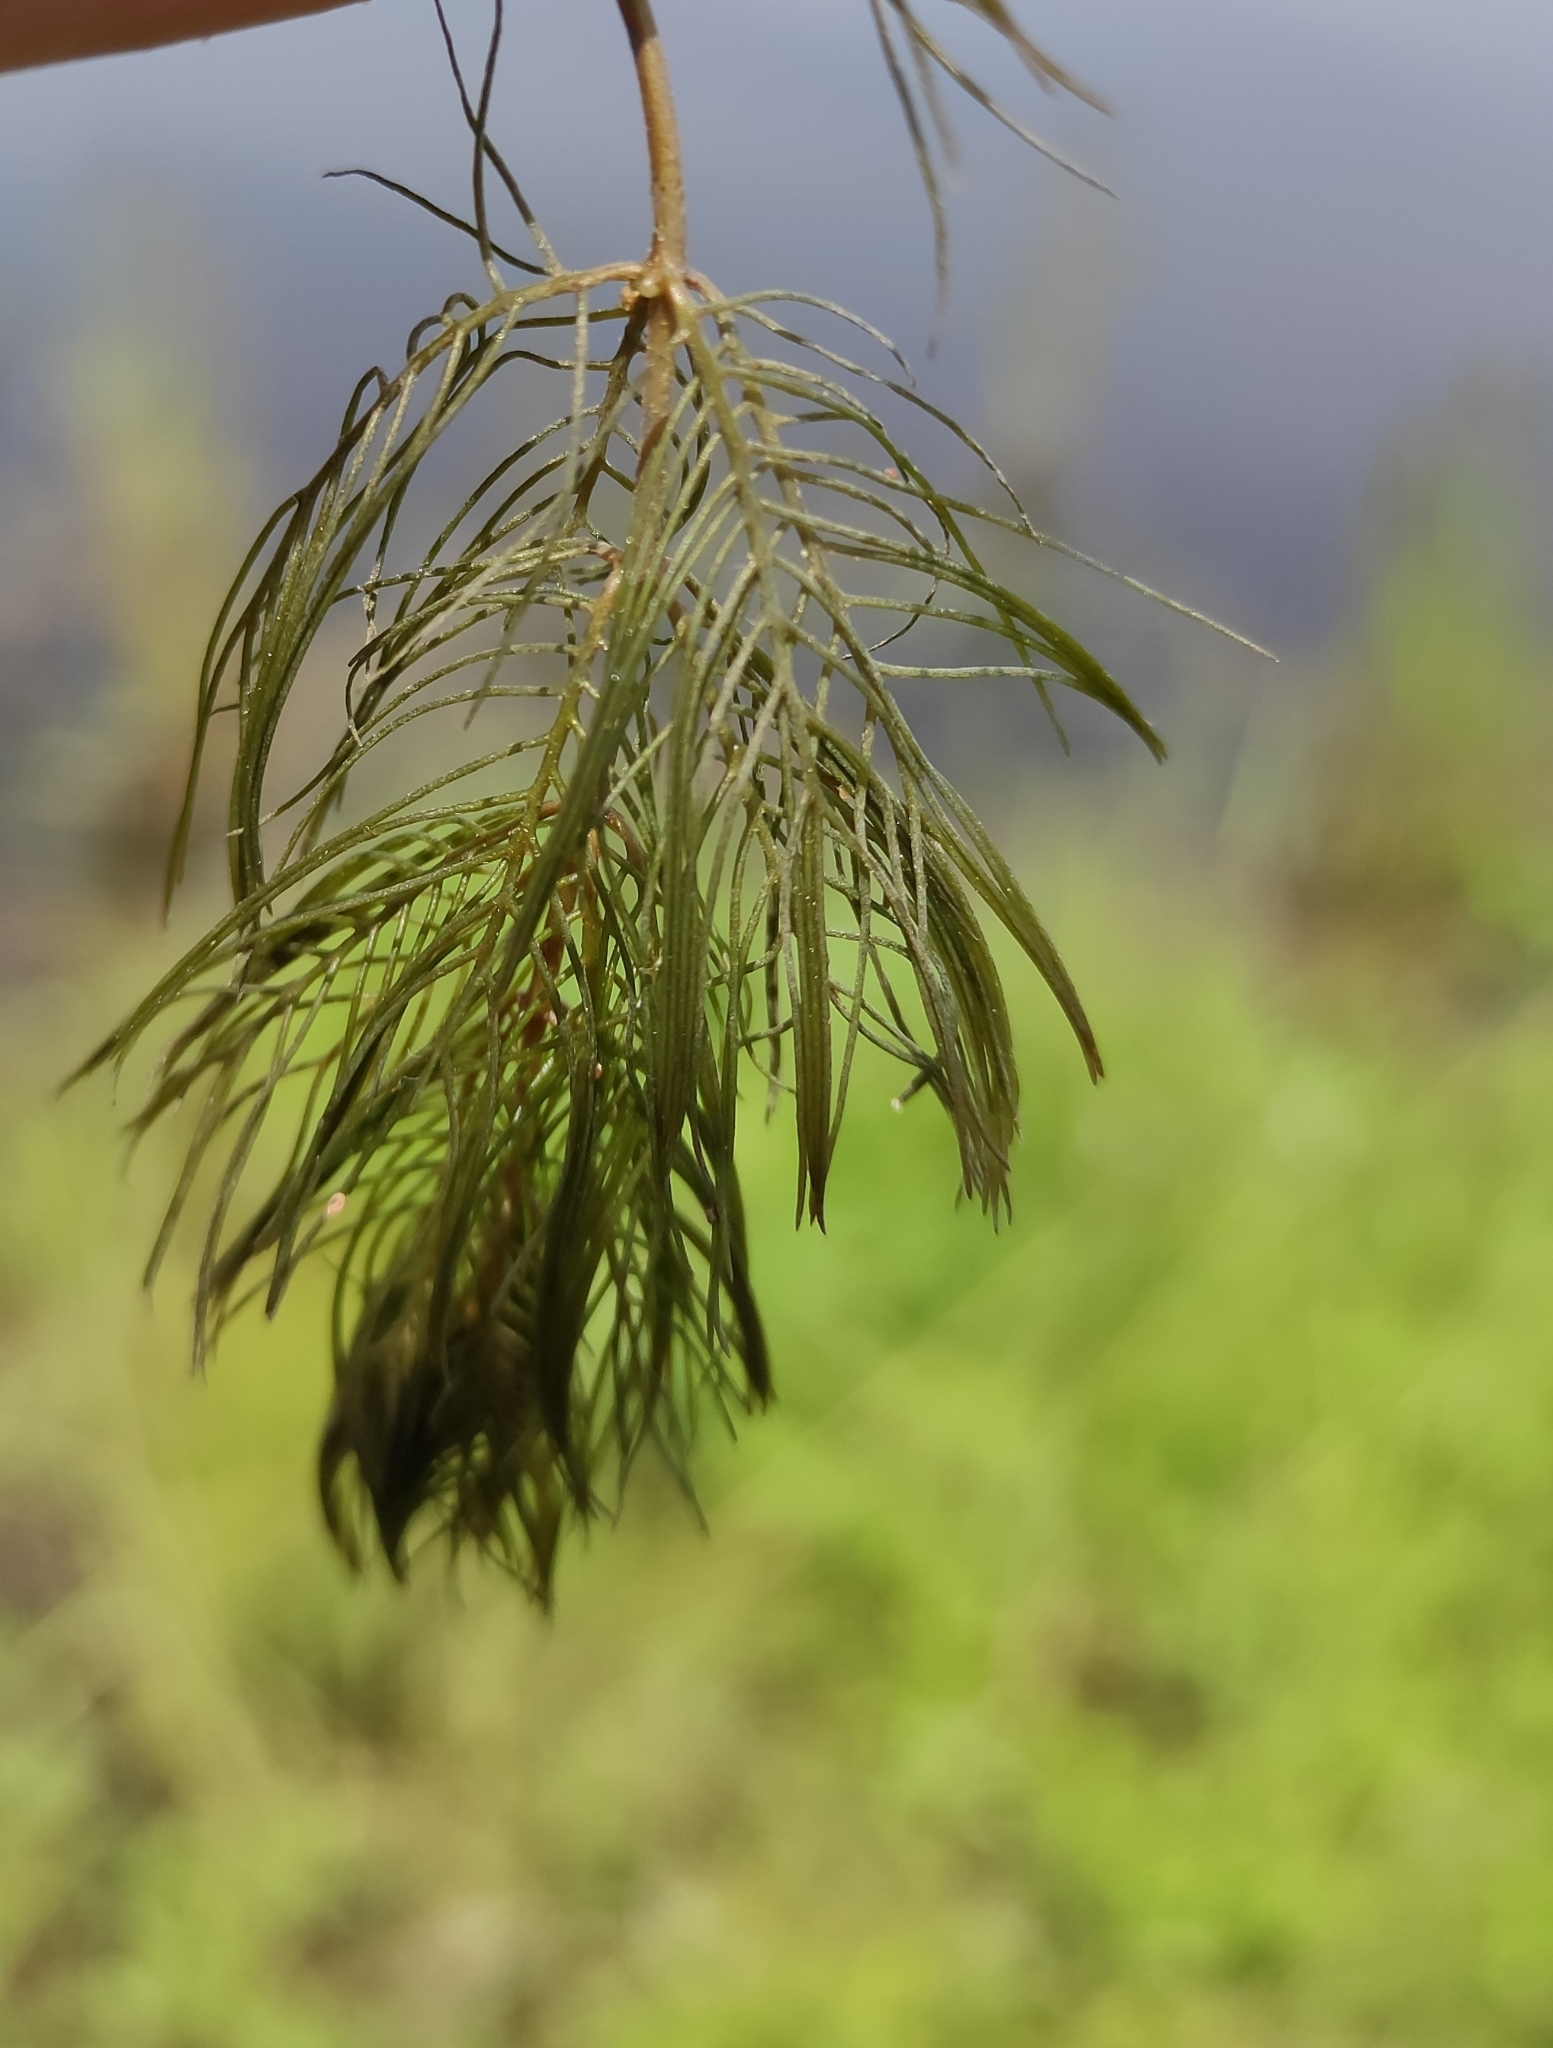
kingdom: Plantae
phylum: Tracheophyta
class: Magnoliopsida
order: Saxifragales
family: Haloragaceae
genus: Myriophyllum
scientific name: Myriophyllum sibiricum
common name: Siberian water-milfoil
